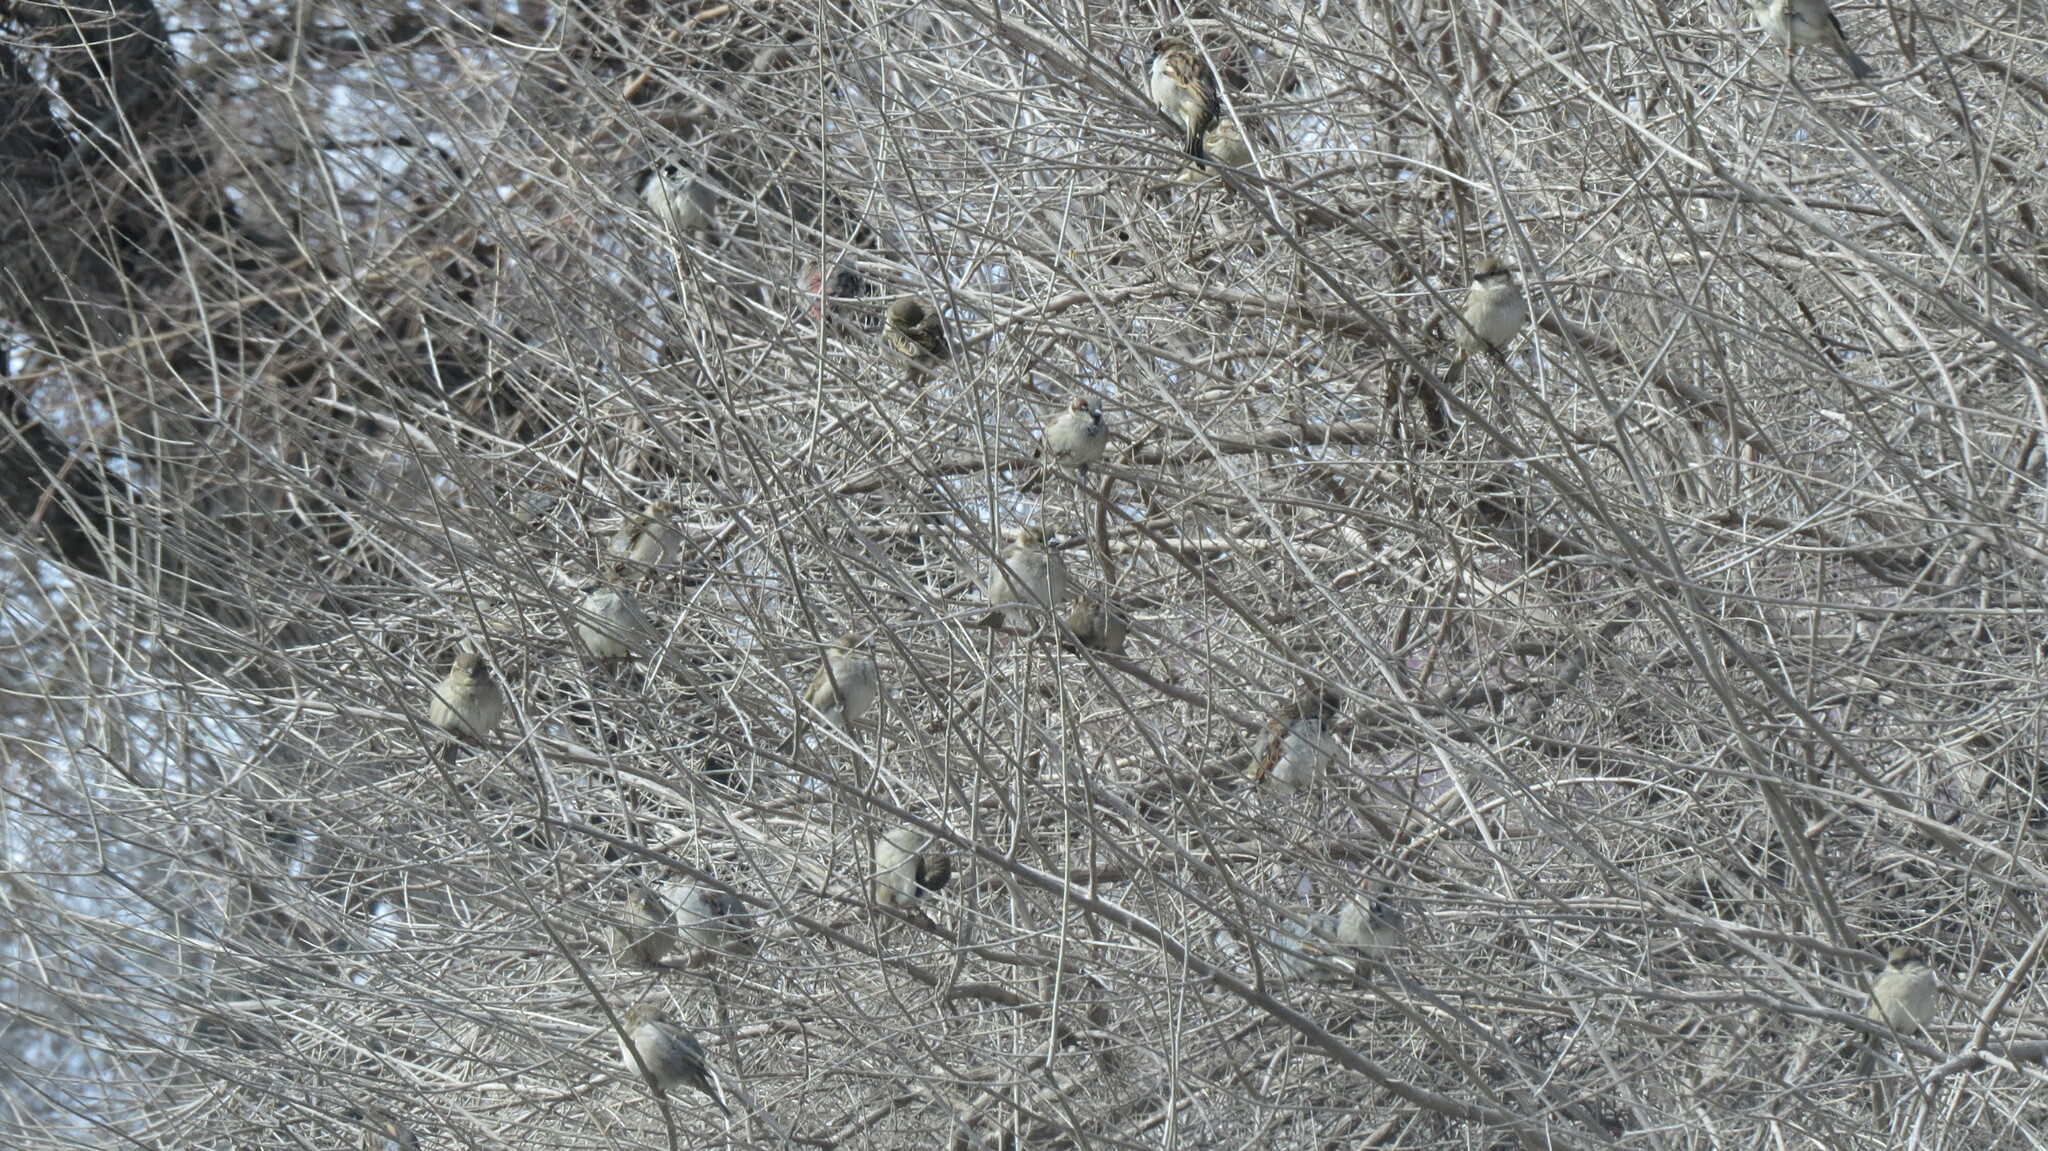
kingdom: Animalia
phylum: Chordata
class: Aves
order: Passeriformes
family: Passeridae
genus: Passer
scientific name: Passer domesticus
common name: House sparrow
